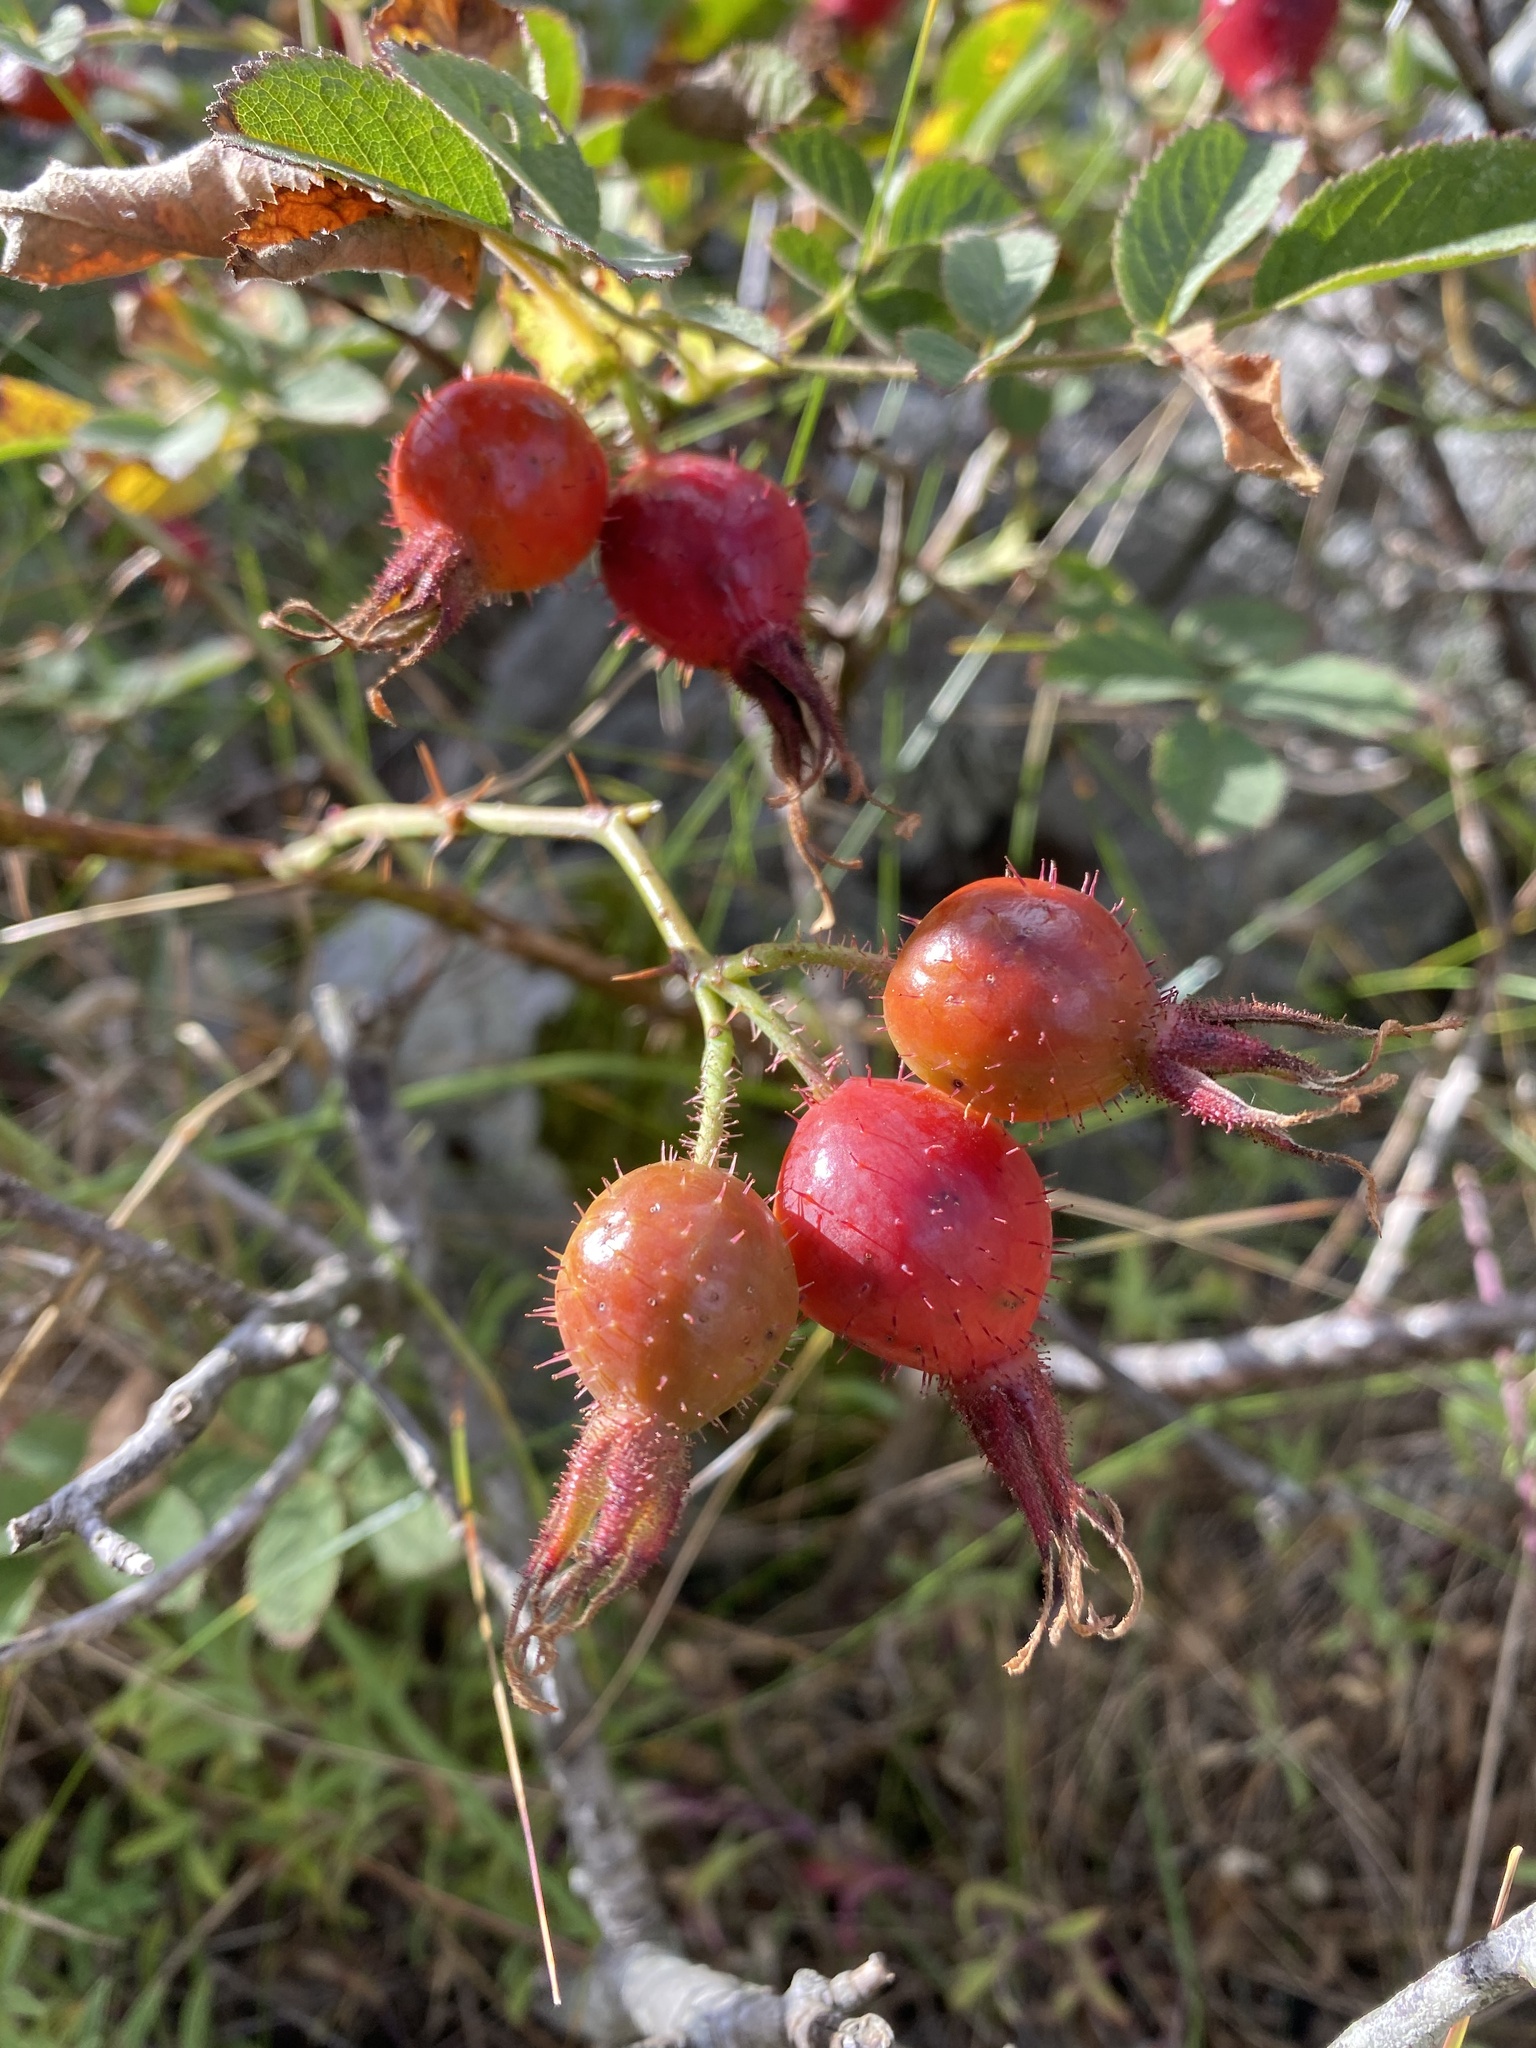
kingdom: Plantae
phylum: Tracheophyta
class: Magnoliopsida
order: Rosales
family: Rosaceae
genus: Rosa
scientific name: Rosa villosa
